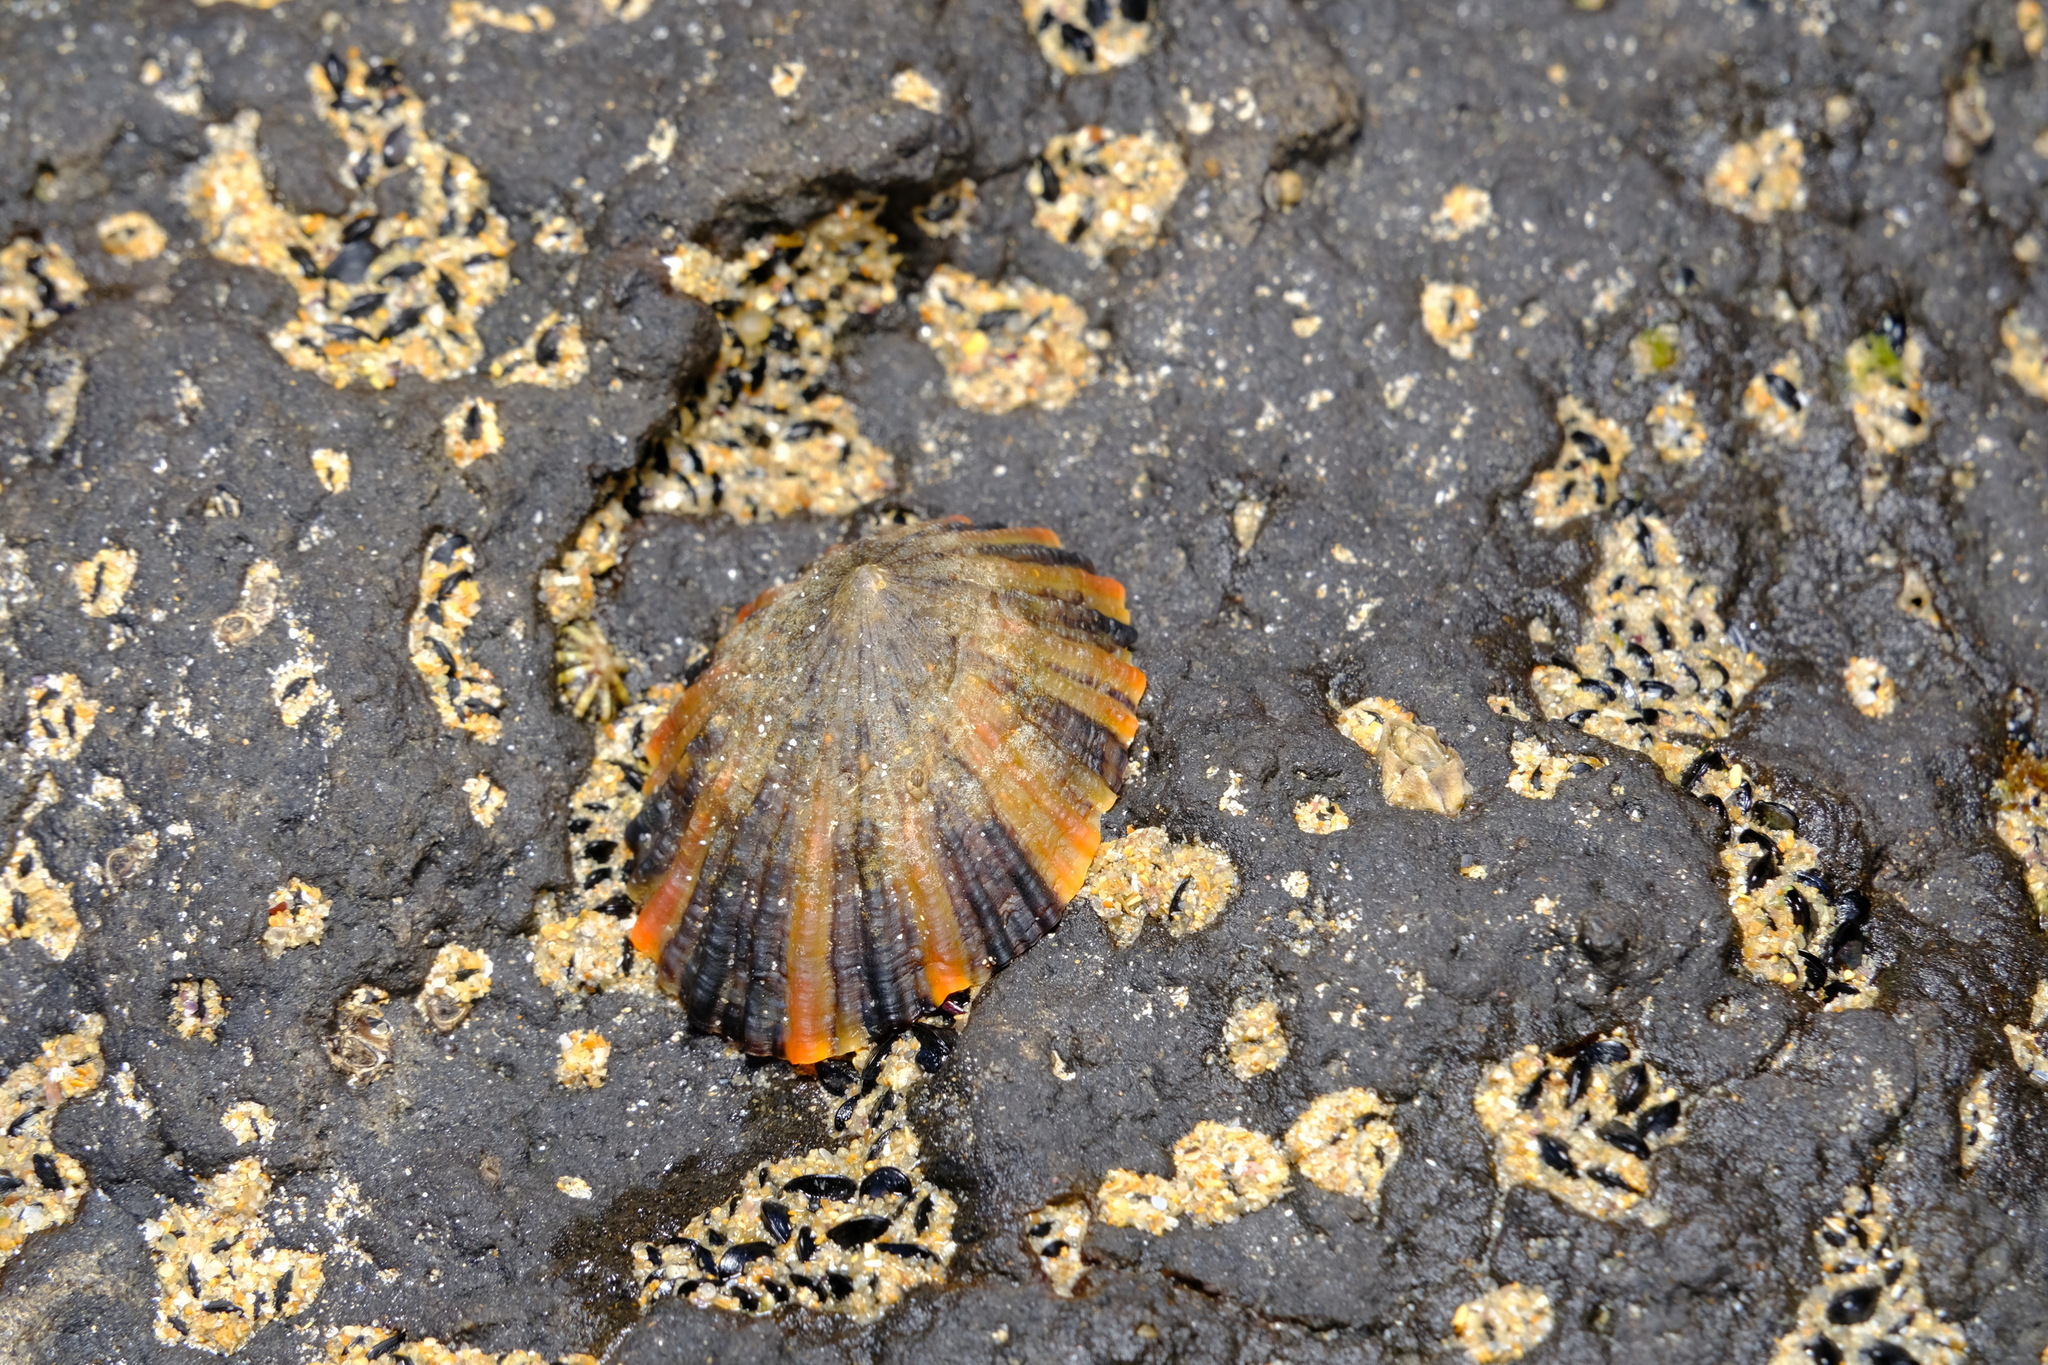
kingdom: Animalia
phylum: Mollusca
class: Gastropoda
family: Nacellidae
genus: Cellana
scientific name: Cellana tramoserica
